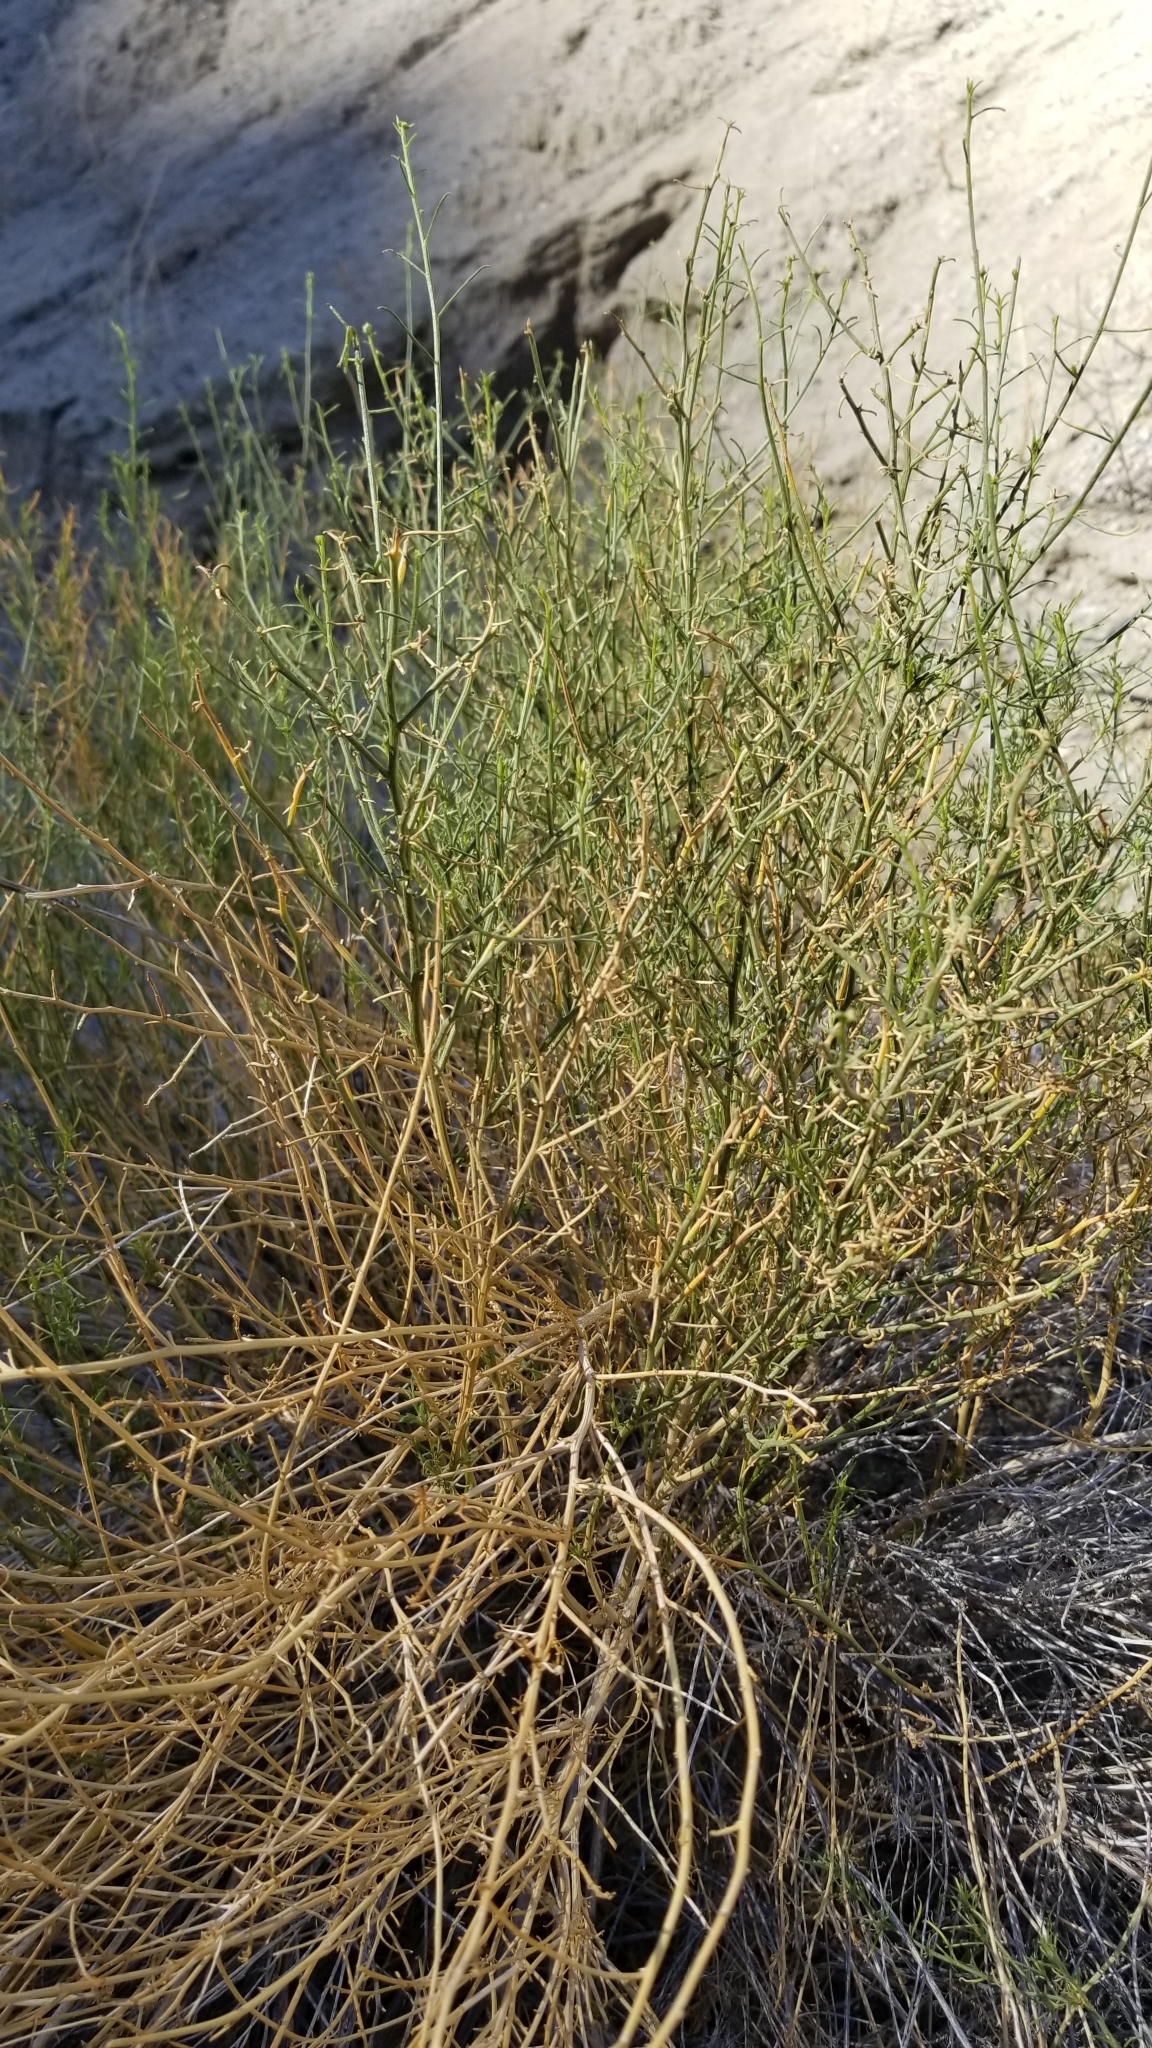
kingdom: Plantae
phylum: Tracheophyta
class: Magnoliopsida
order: Asterales
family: Asteraceae
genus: Ambrosia
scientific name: Ambrosia salsola
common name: Burrobrush
